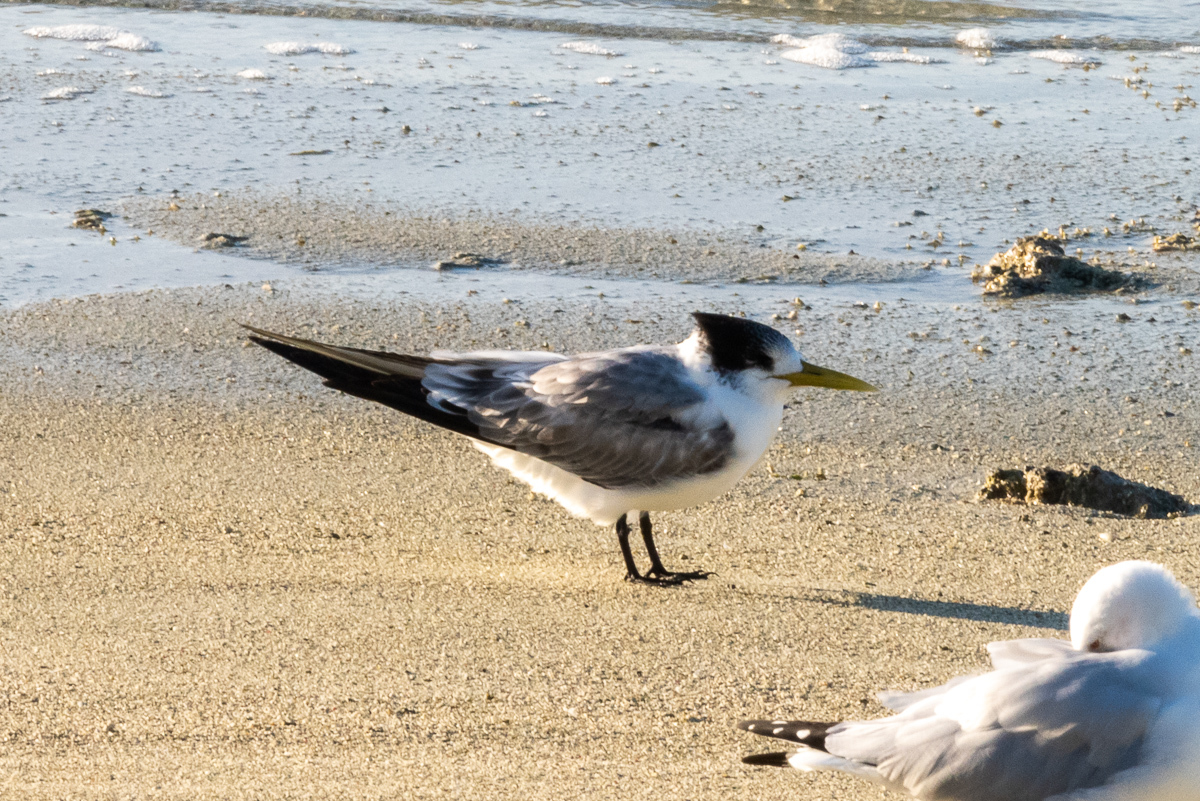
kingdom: Animalia
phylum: Chordata
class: Aves
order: Charadriiformes
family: Laridae
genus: Thalasseus
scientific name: Thalasseus bergii
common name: Greater crested tern
